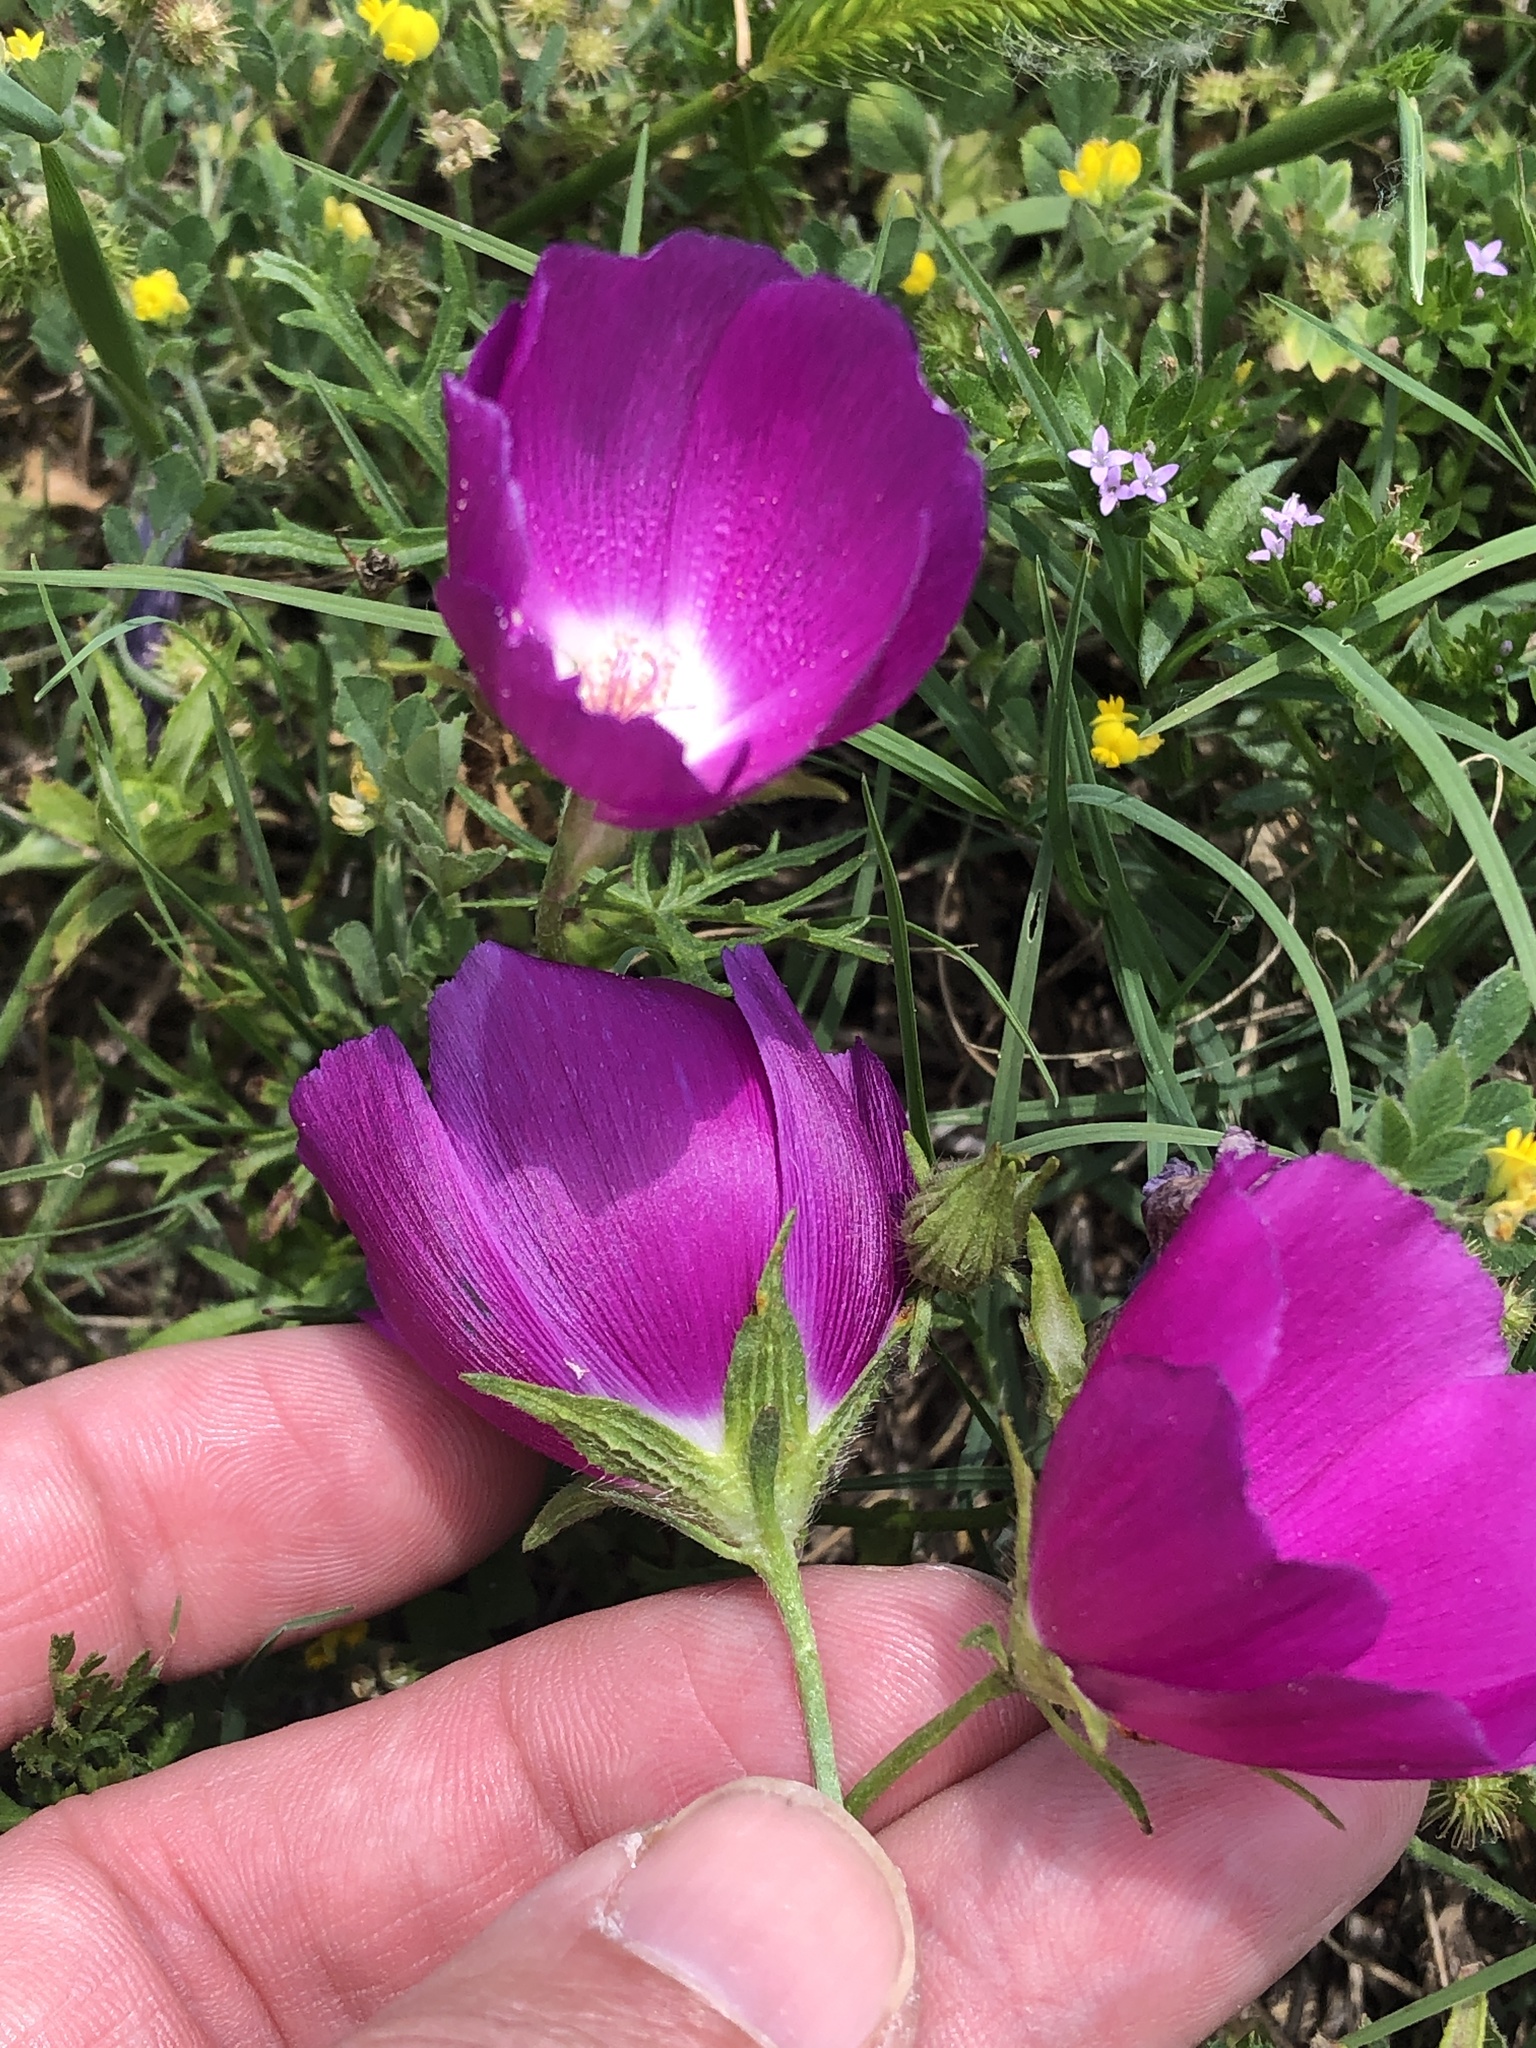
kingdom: Plantae
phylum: Tracheophyta
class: Magnoliopsida
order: Malvales
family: Malvaceae
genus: Callirhoe
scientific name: Callirhoe involucrata
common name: Purple poppy-mallow
